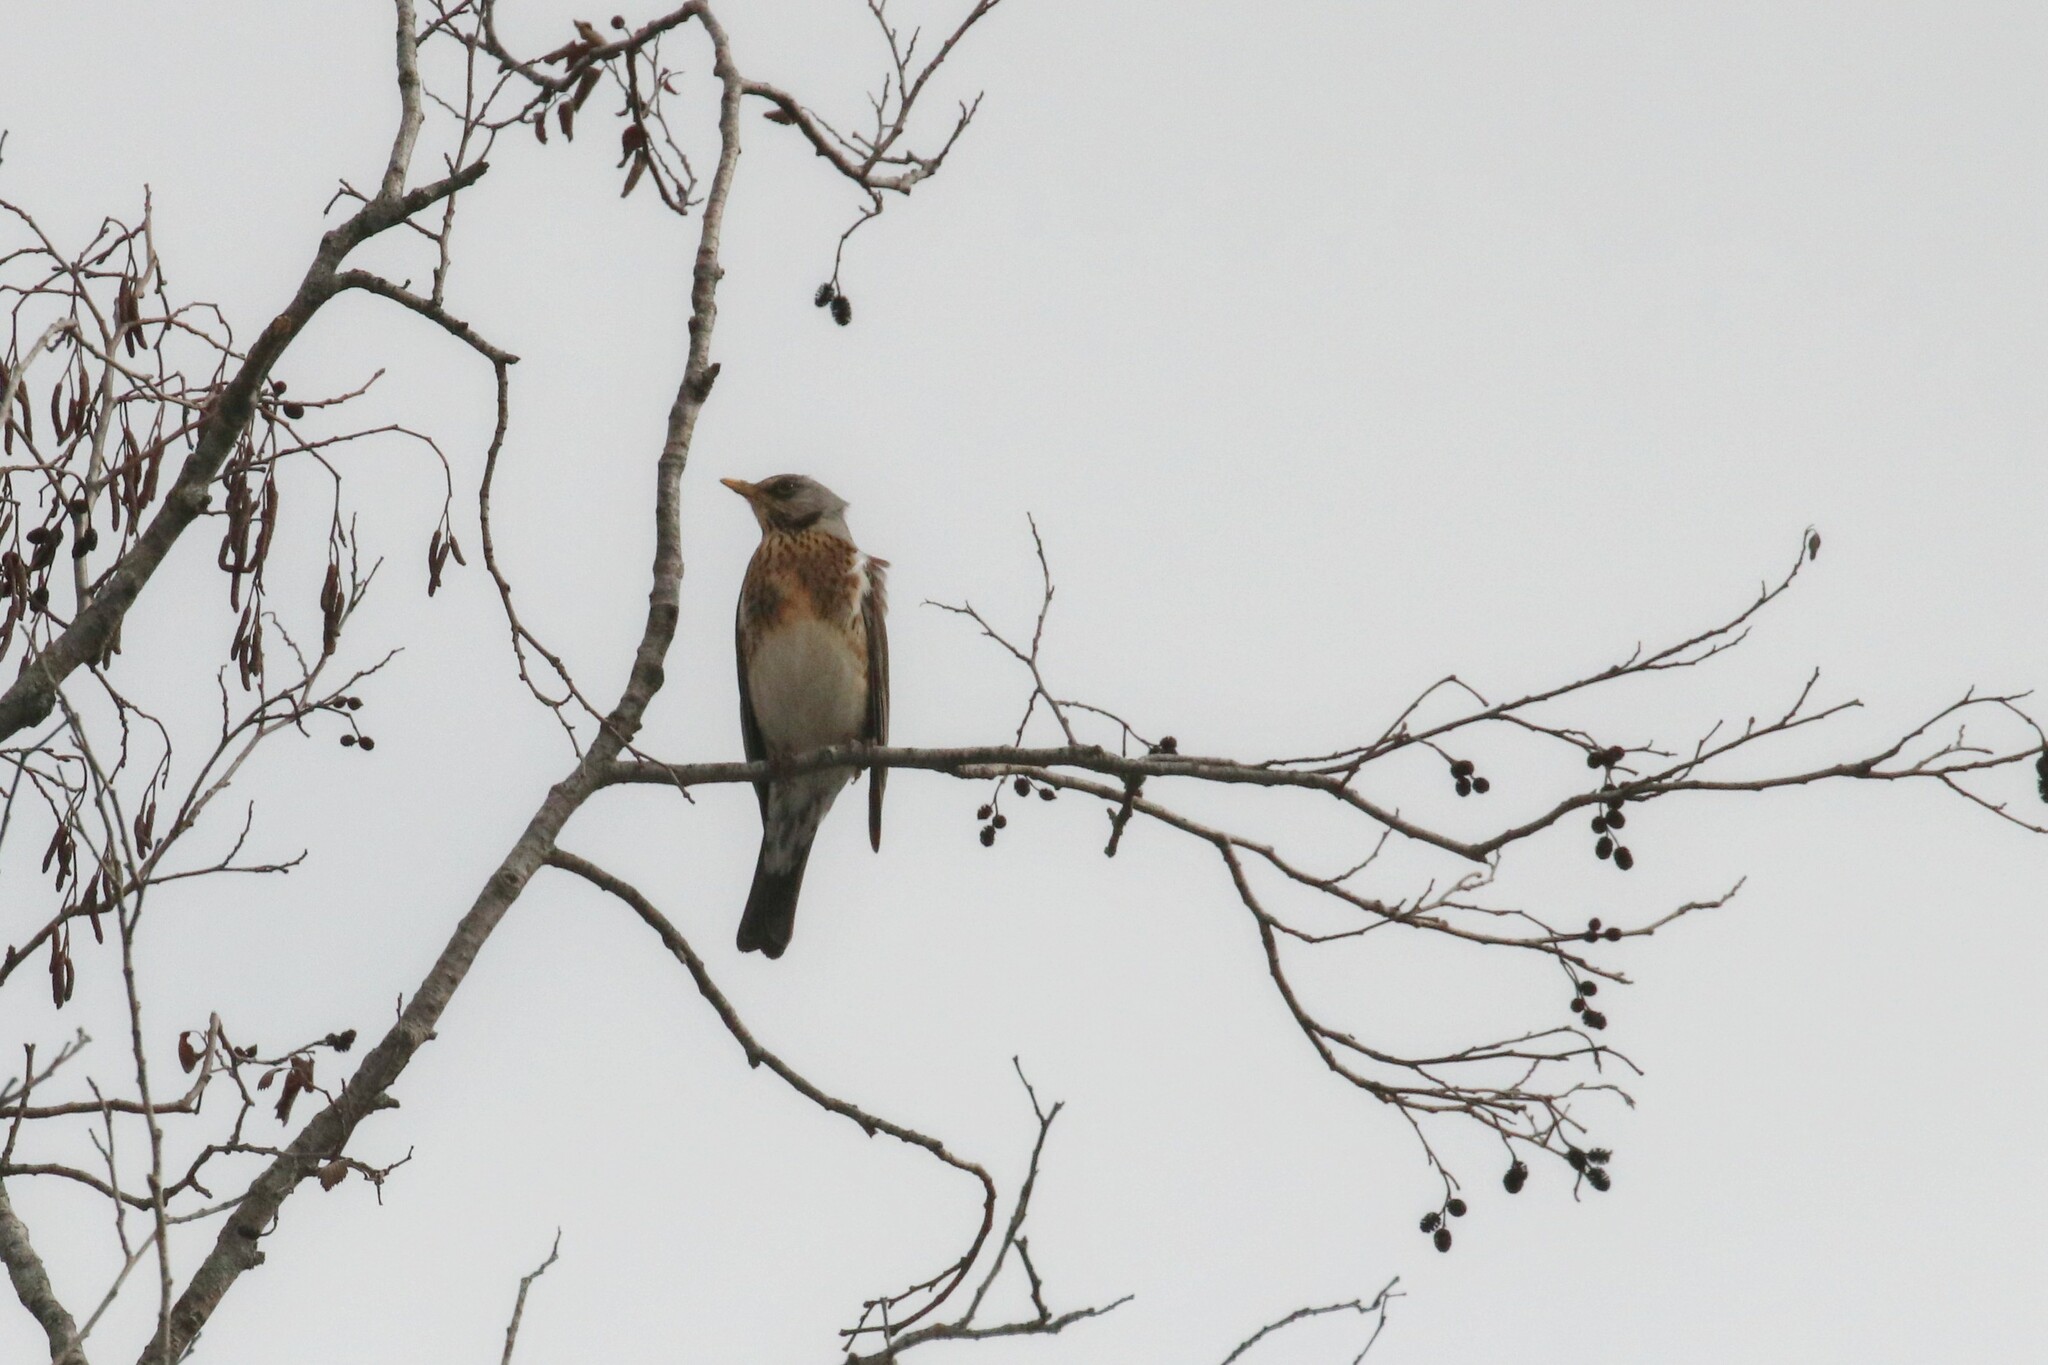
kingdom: Animalia
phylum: Chordata
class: Aves
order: Passeriformes
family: Turdidae
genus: Turdus
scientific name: Turdus pilaris
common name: Fieldfare
